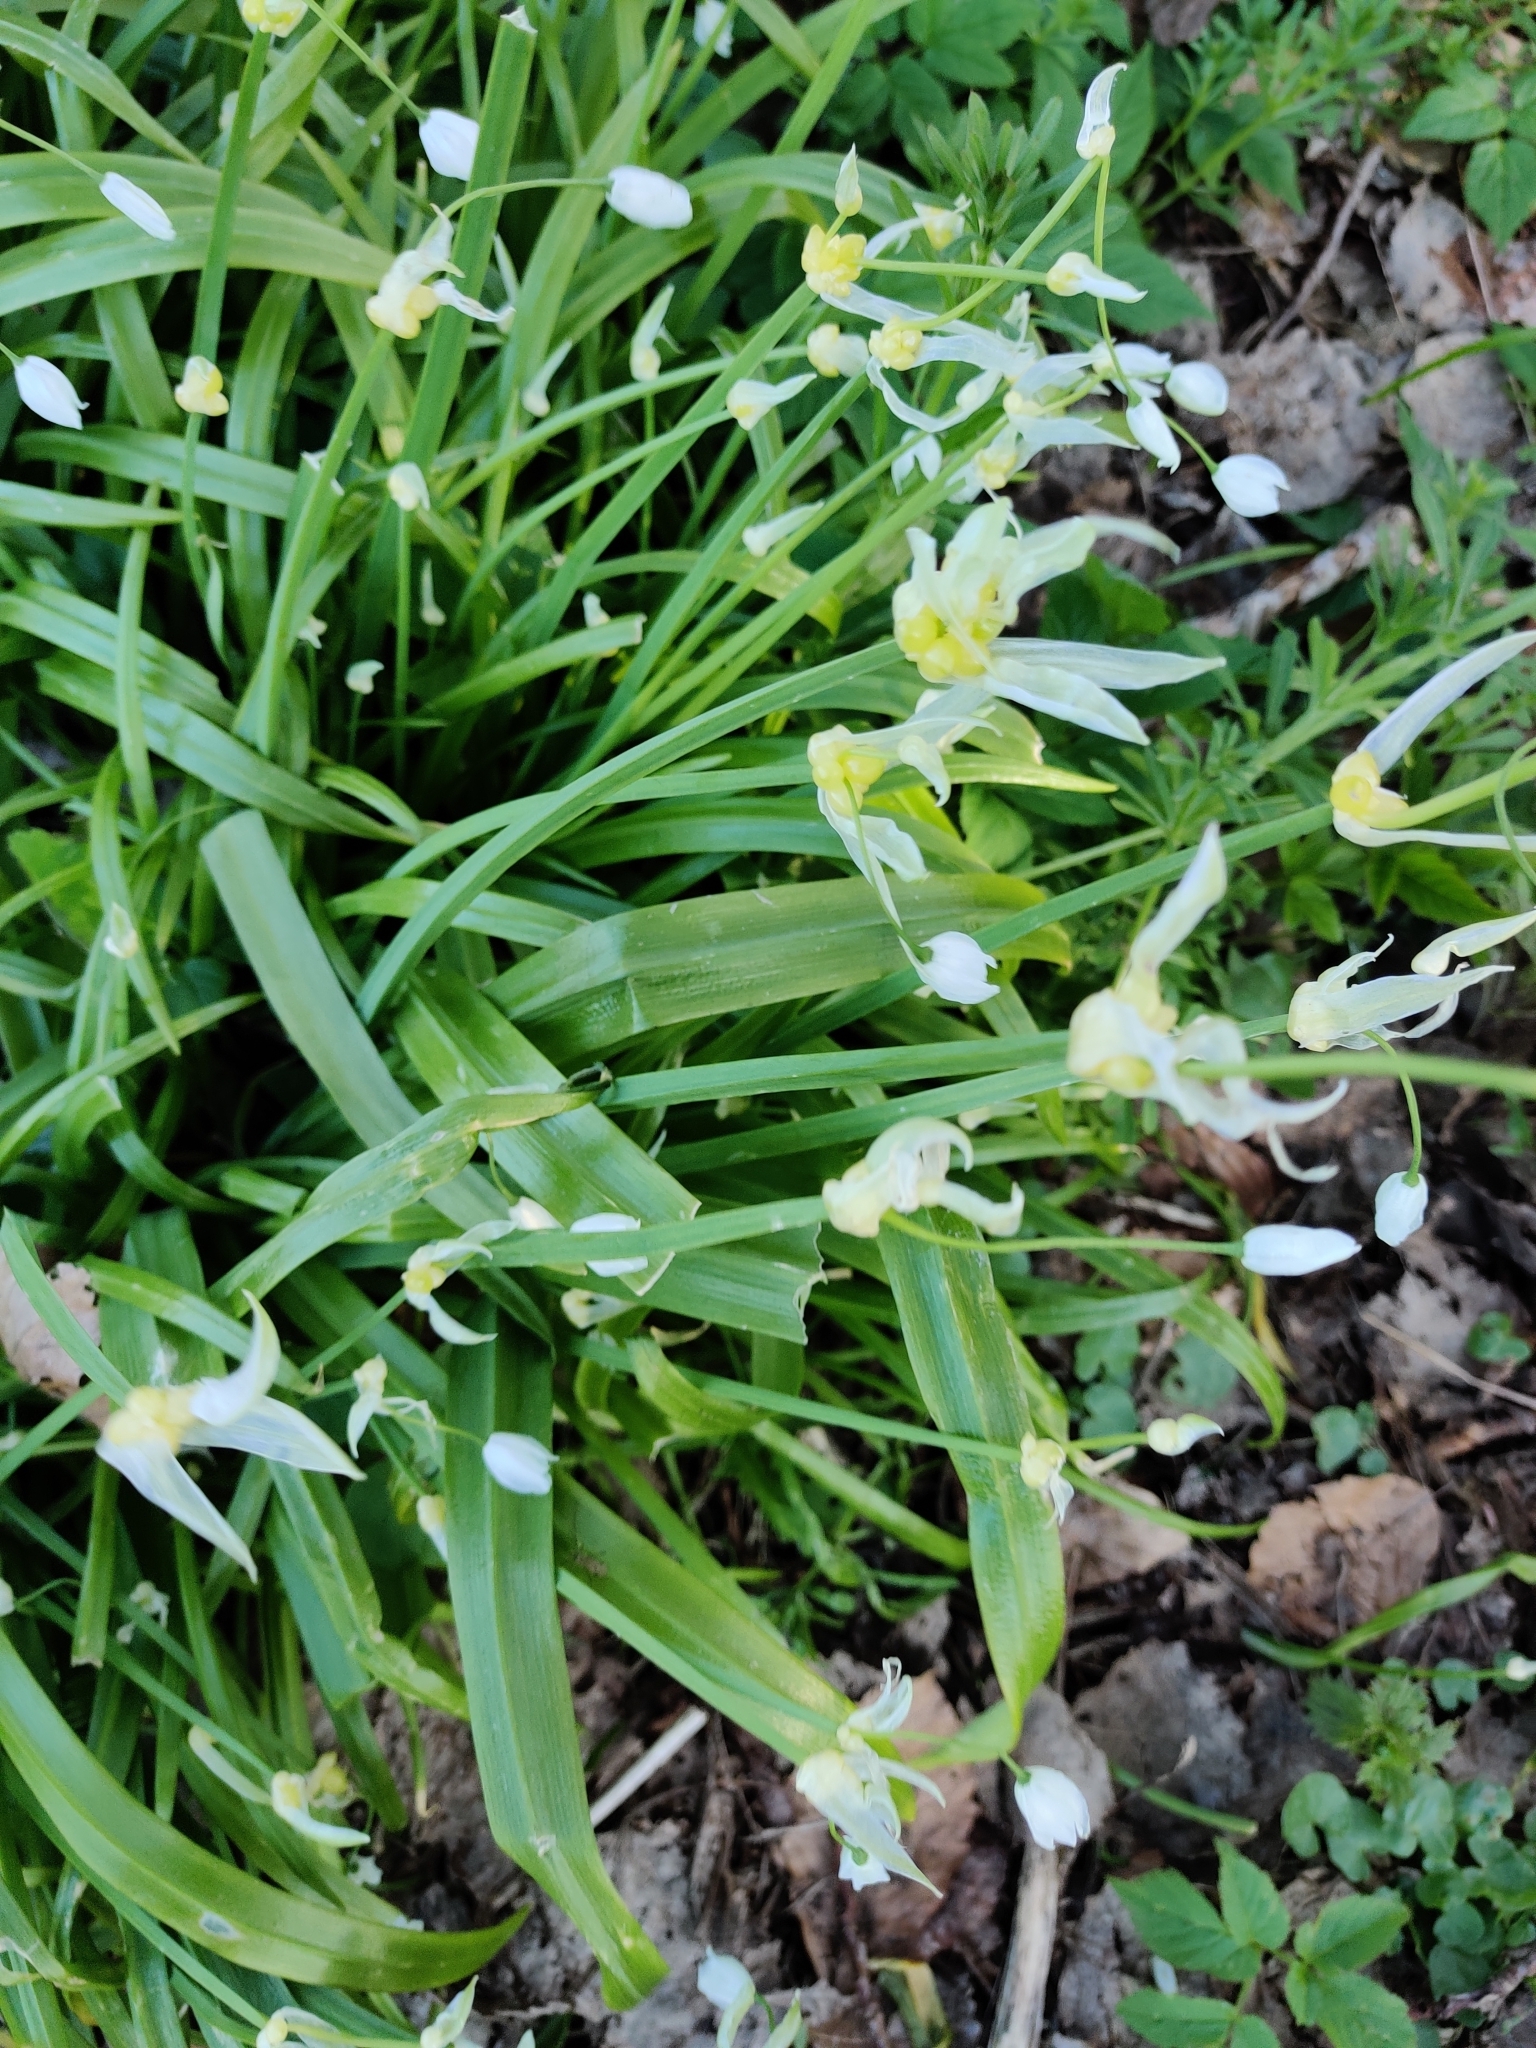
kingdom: Plantae
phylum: Tracheophyta
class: Liliopsida
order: Asparagales
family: Amaryllidaceae
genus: Allium
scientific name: Allium paradoxum
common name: Few-flowered garlic
